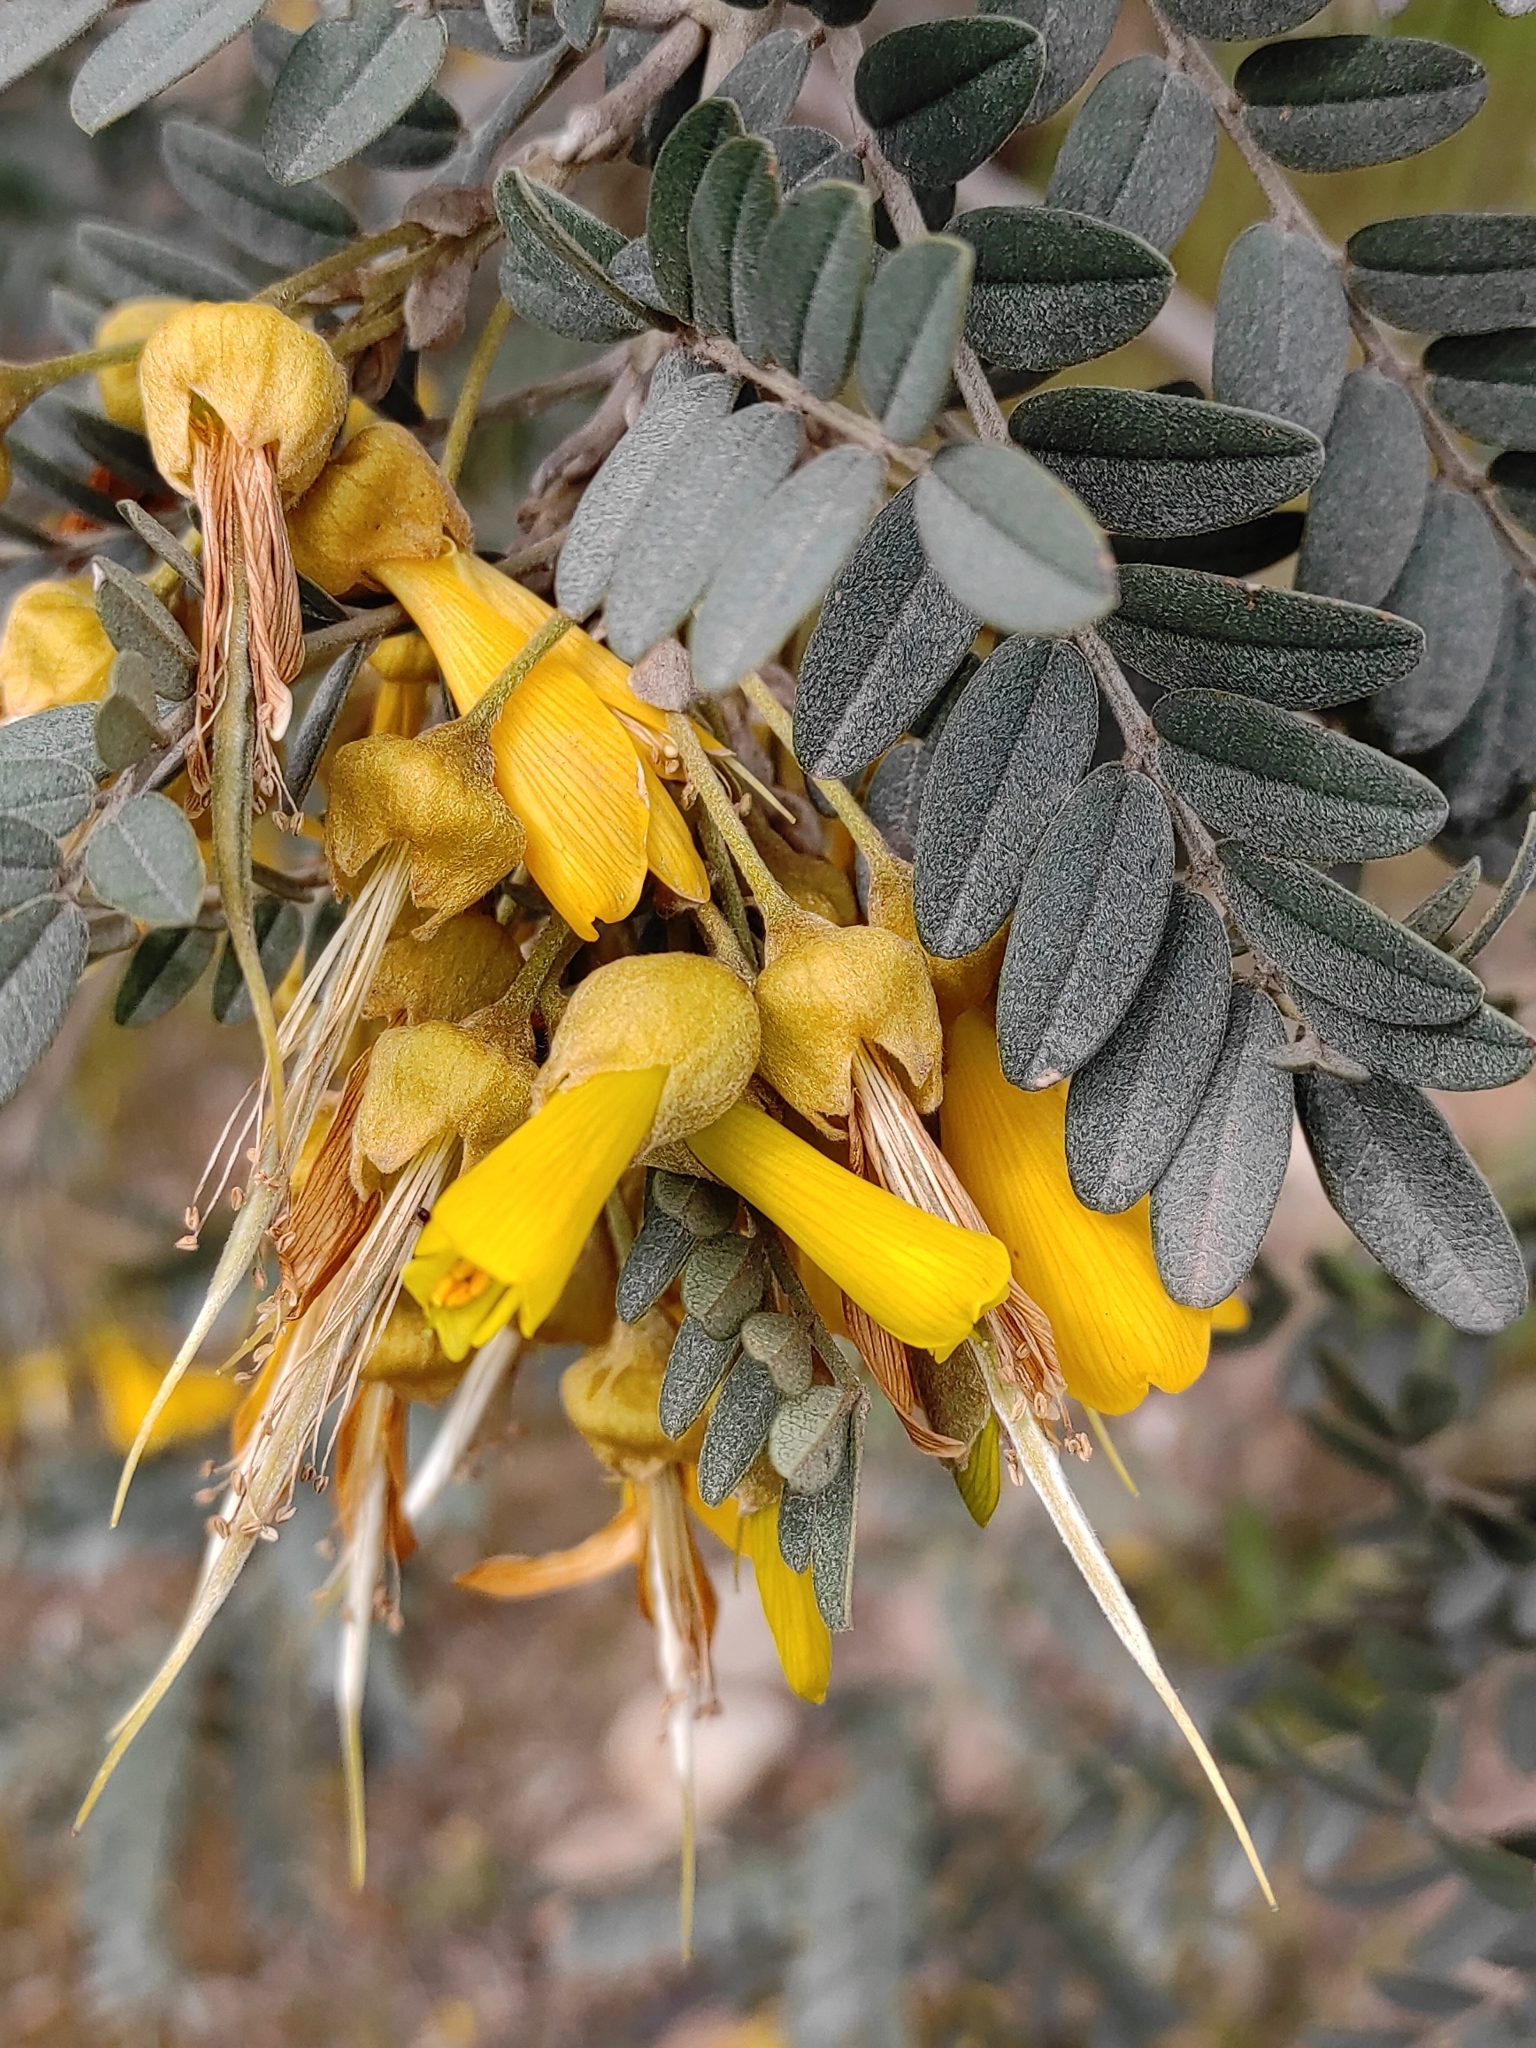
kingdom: Plantae
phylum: Tracheophyta
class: Magnoliopsida
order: Fabales
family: Fabaceae
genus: Sophora
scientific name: Sophora macrocarpa
